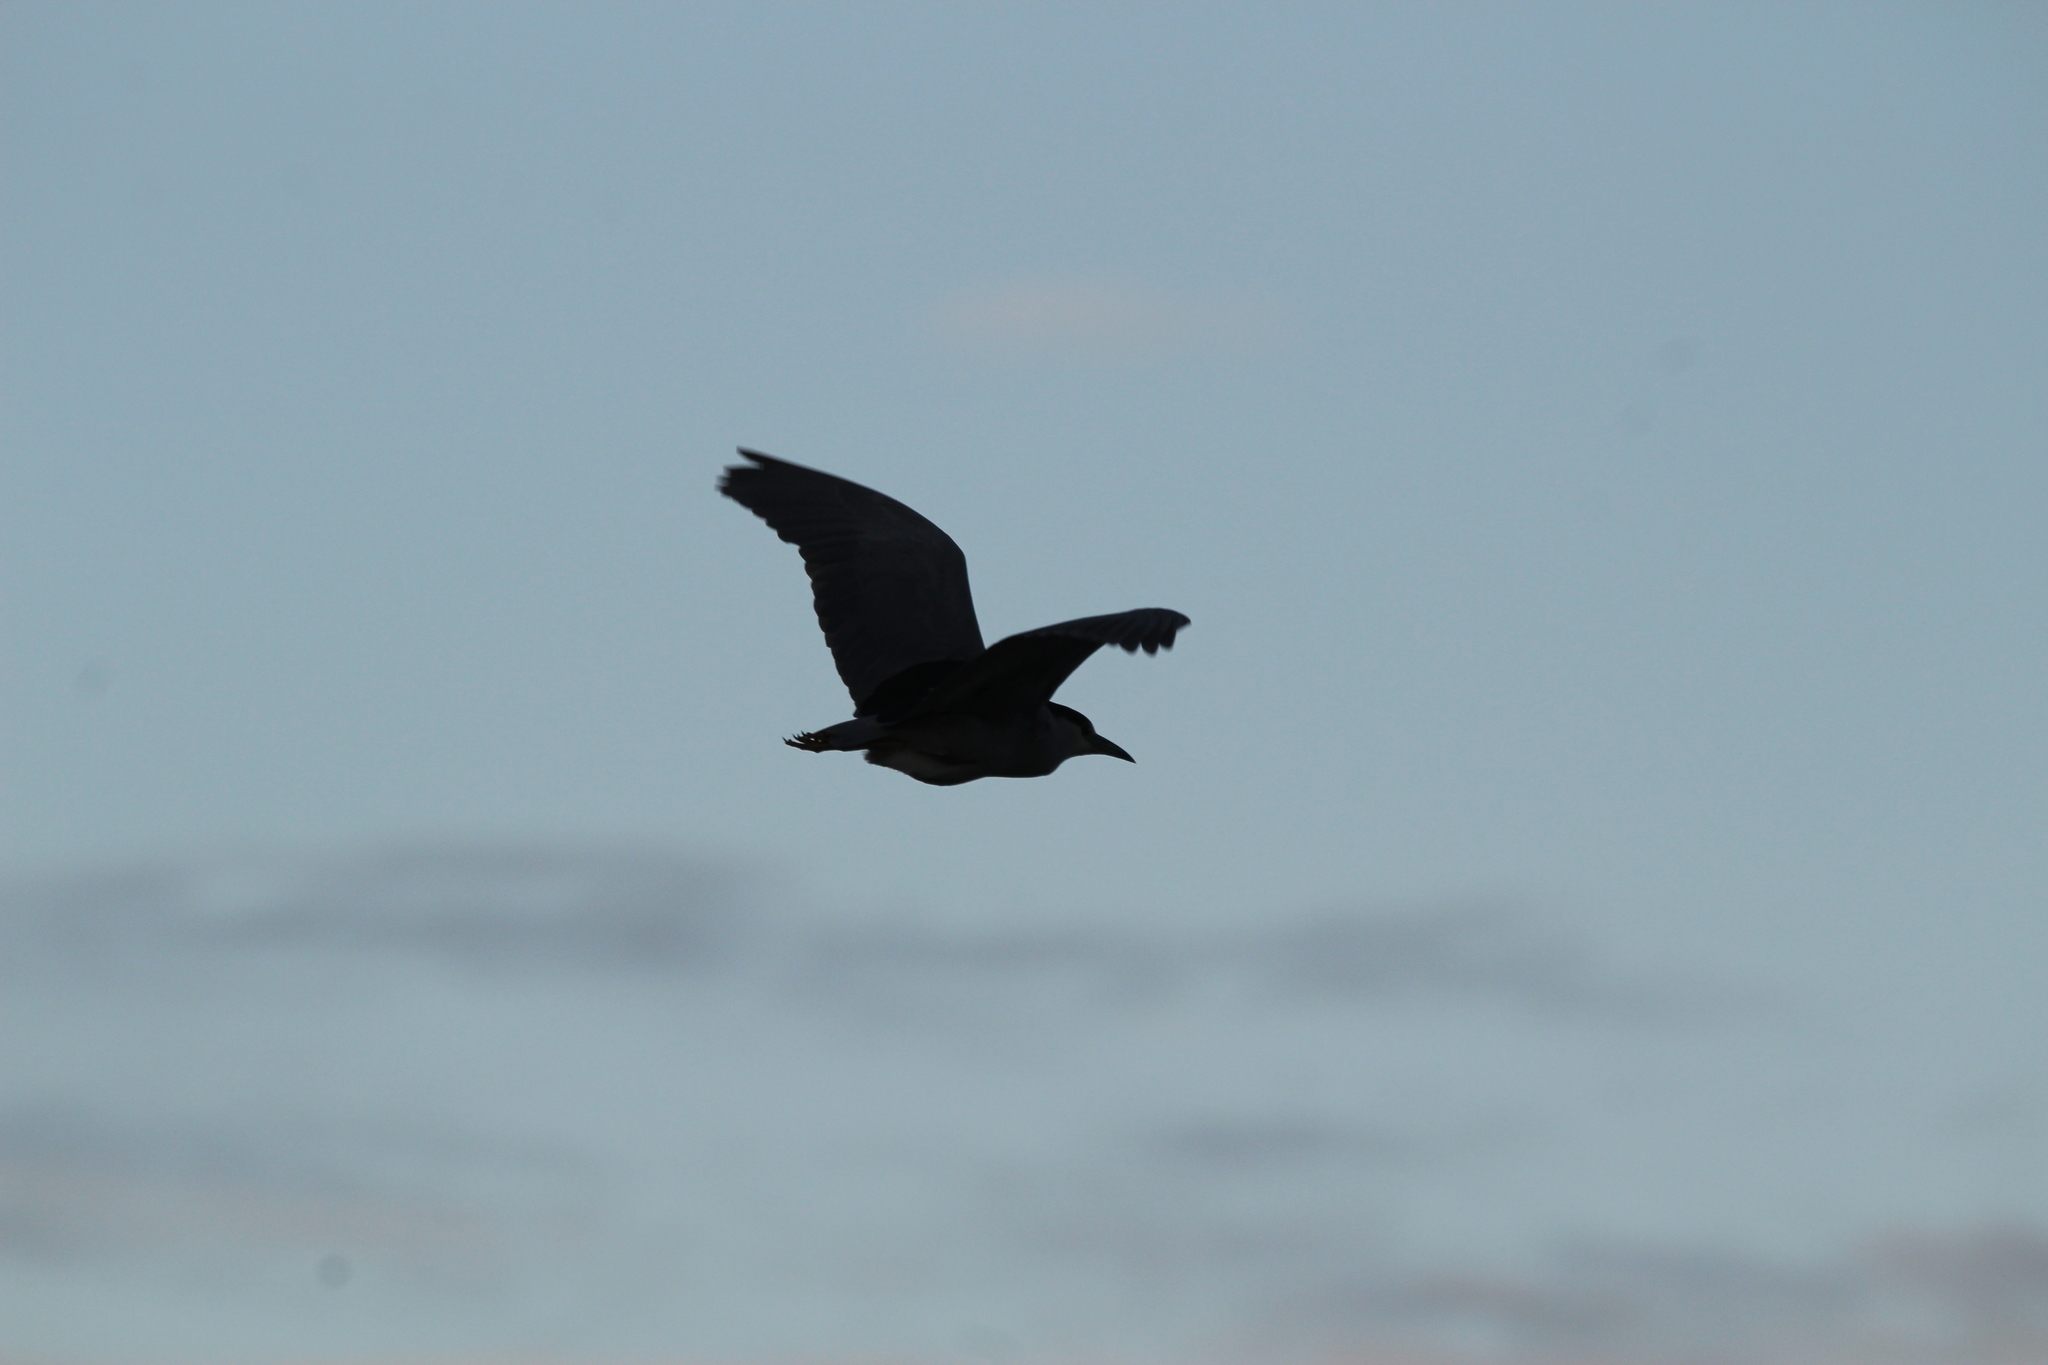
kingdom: Animalia
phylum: Chordata
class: Aves
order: Pelecaniformes
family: Ardeidae
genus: Nycticorax
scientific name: Nycticorax nycticorax
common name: Black-crowned night heron
